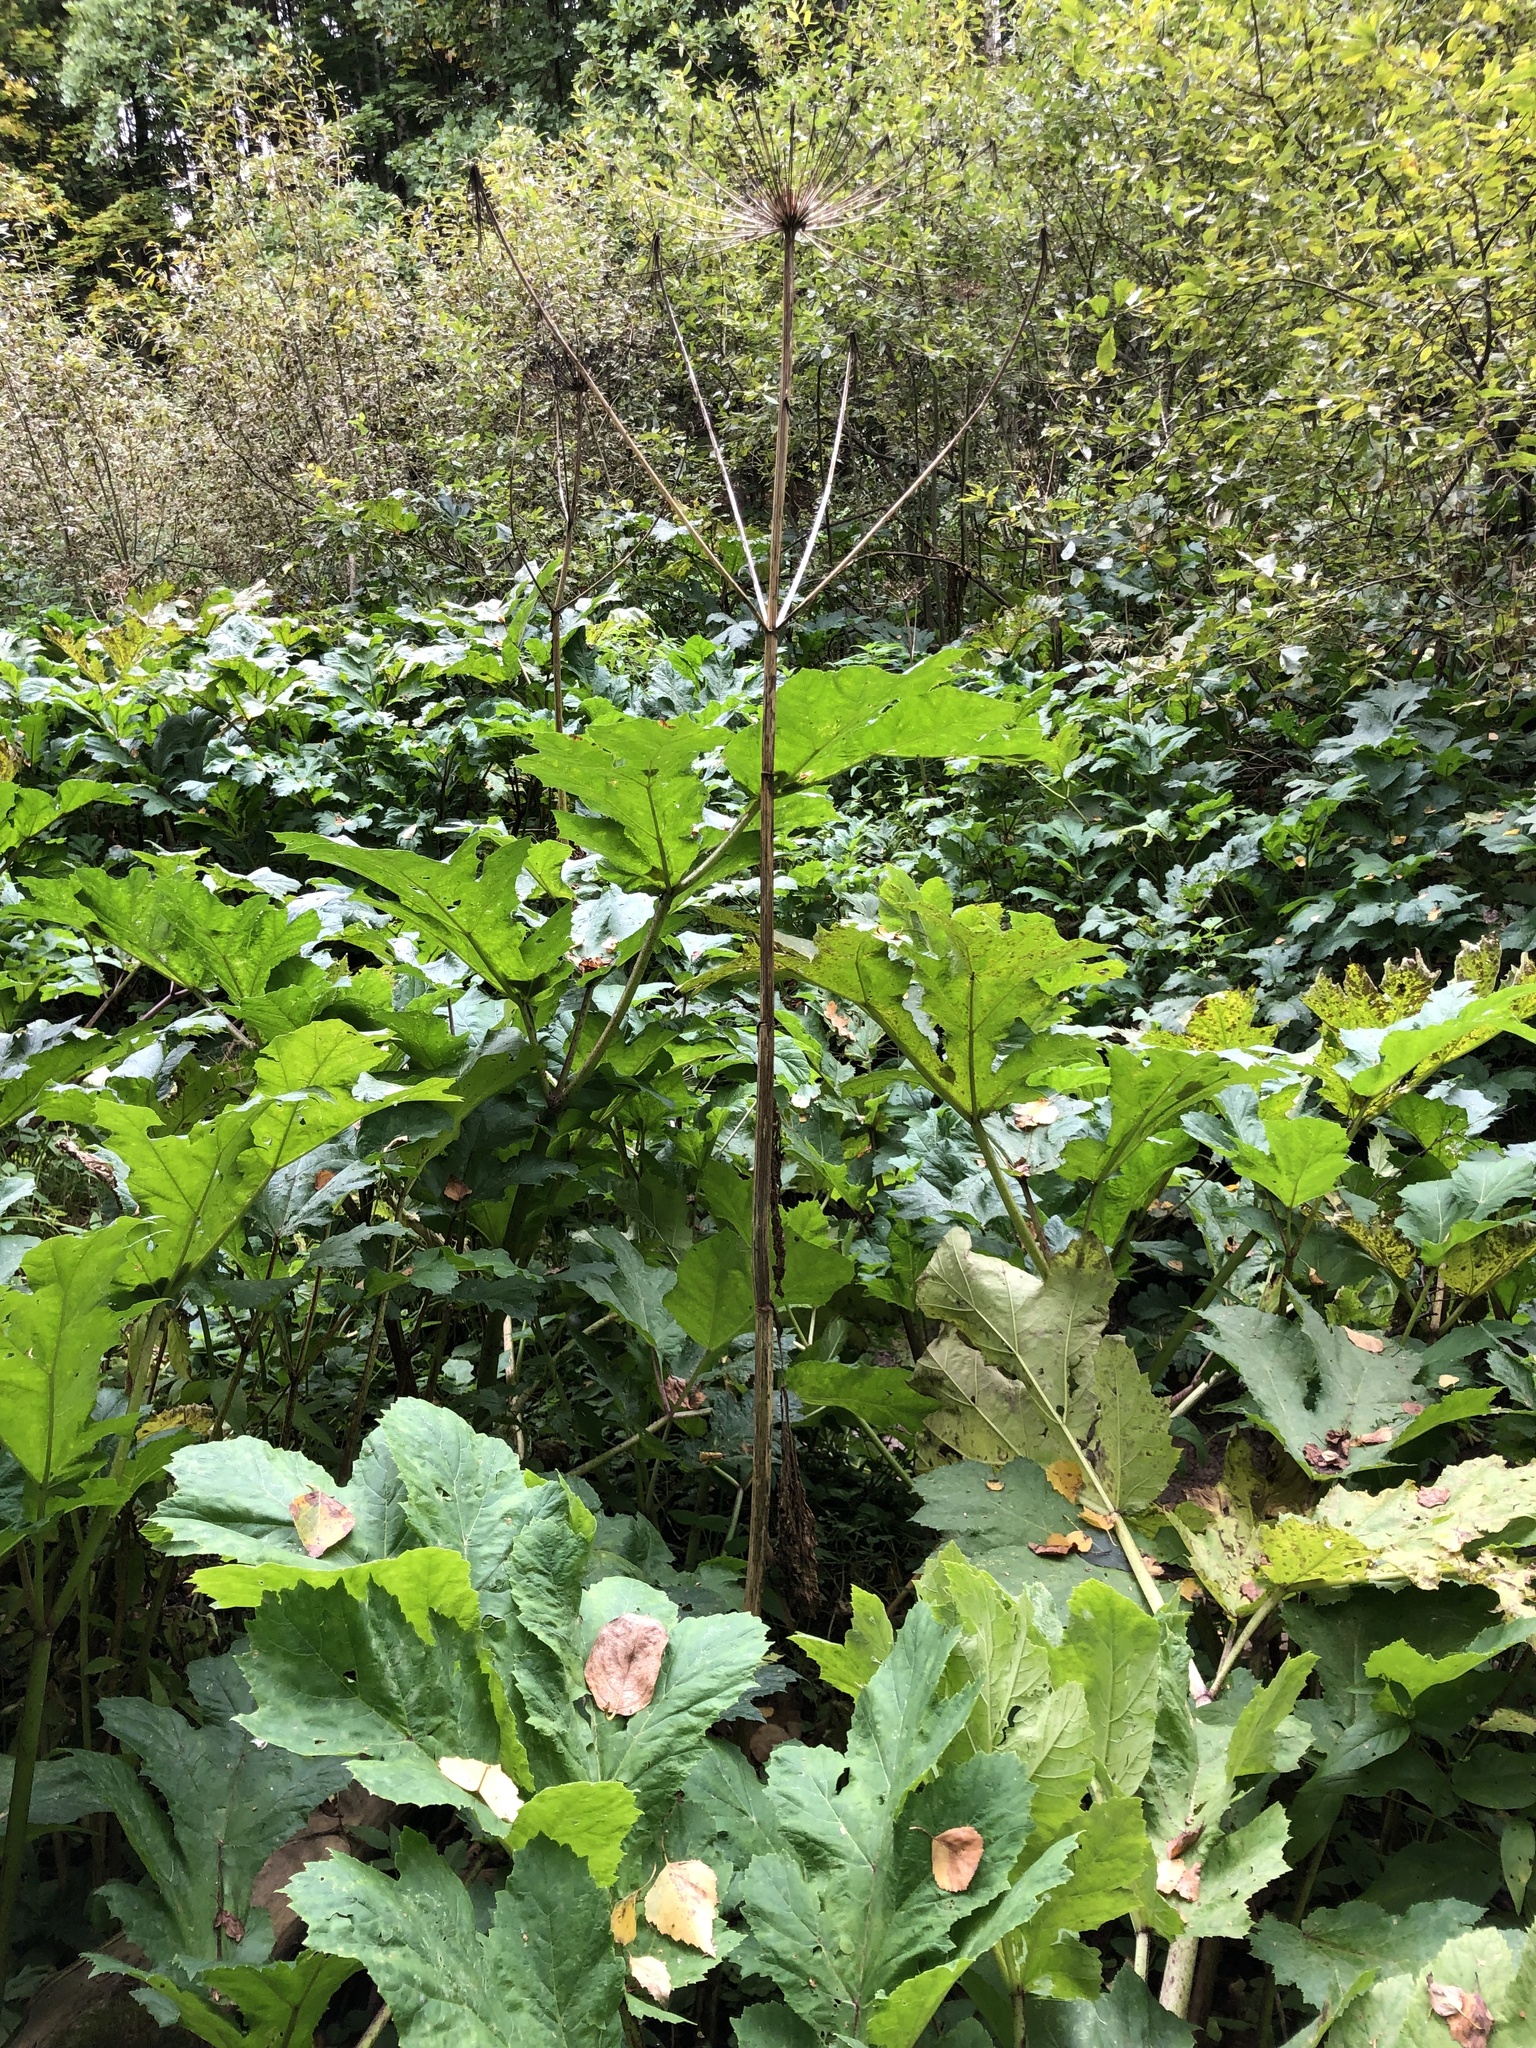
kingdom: Plantae
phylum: Tracheophyta
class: Magnoliopsida
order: Apiales
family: Apiaceae
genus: Heracleum
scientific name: Heracleum sosnowskyi
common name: Sosnowsky's hogweed
